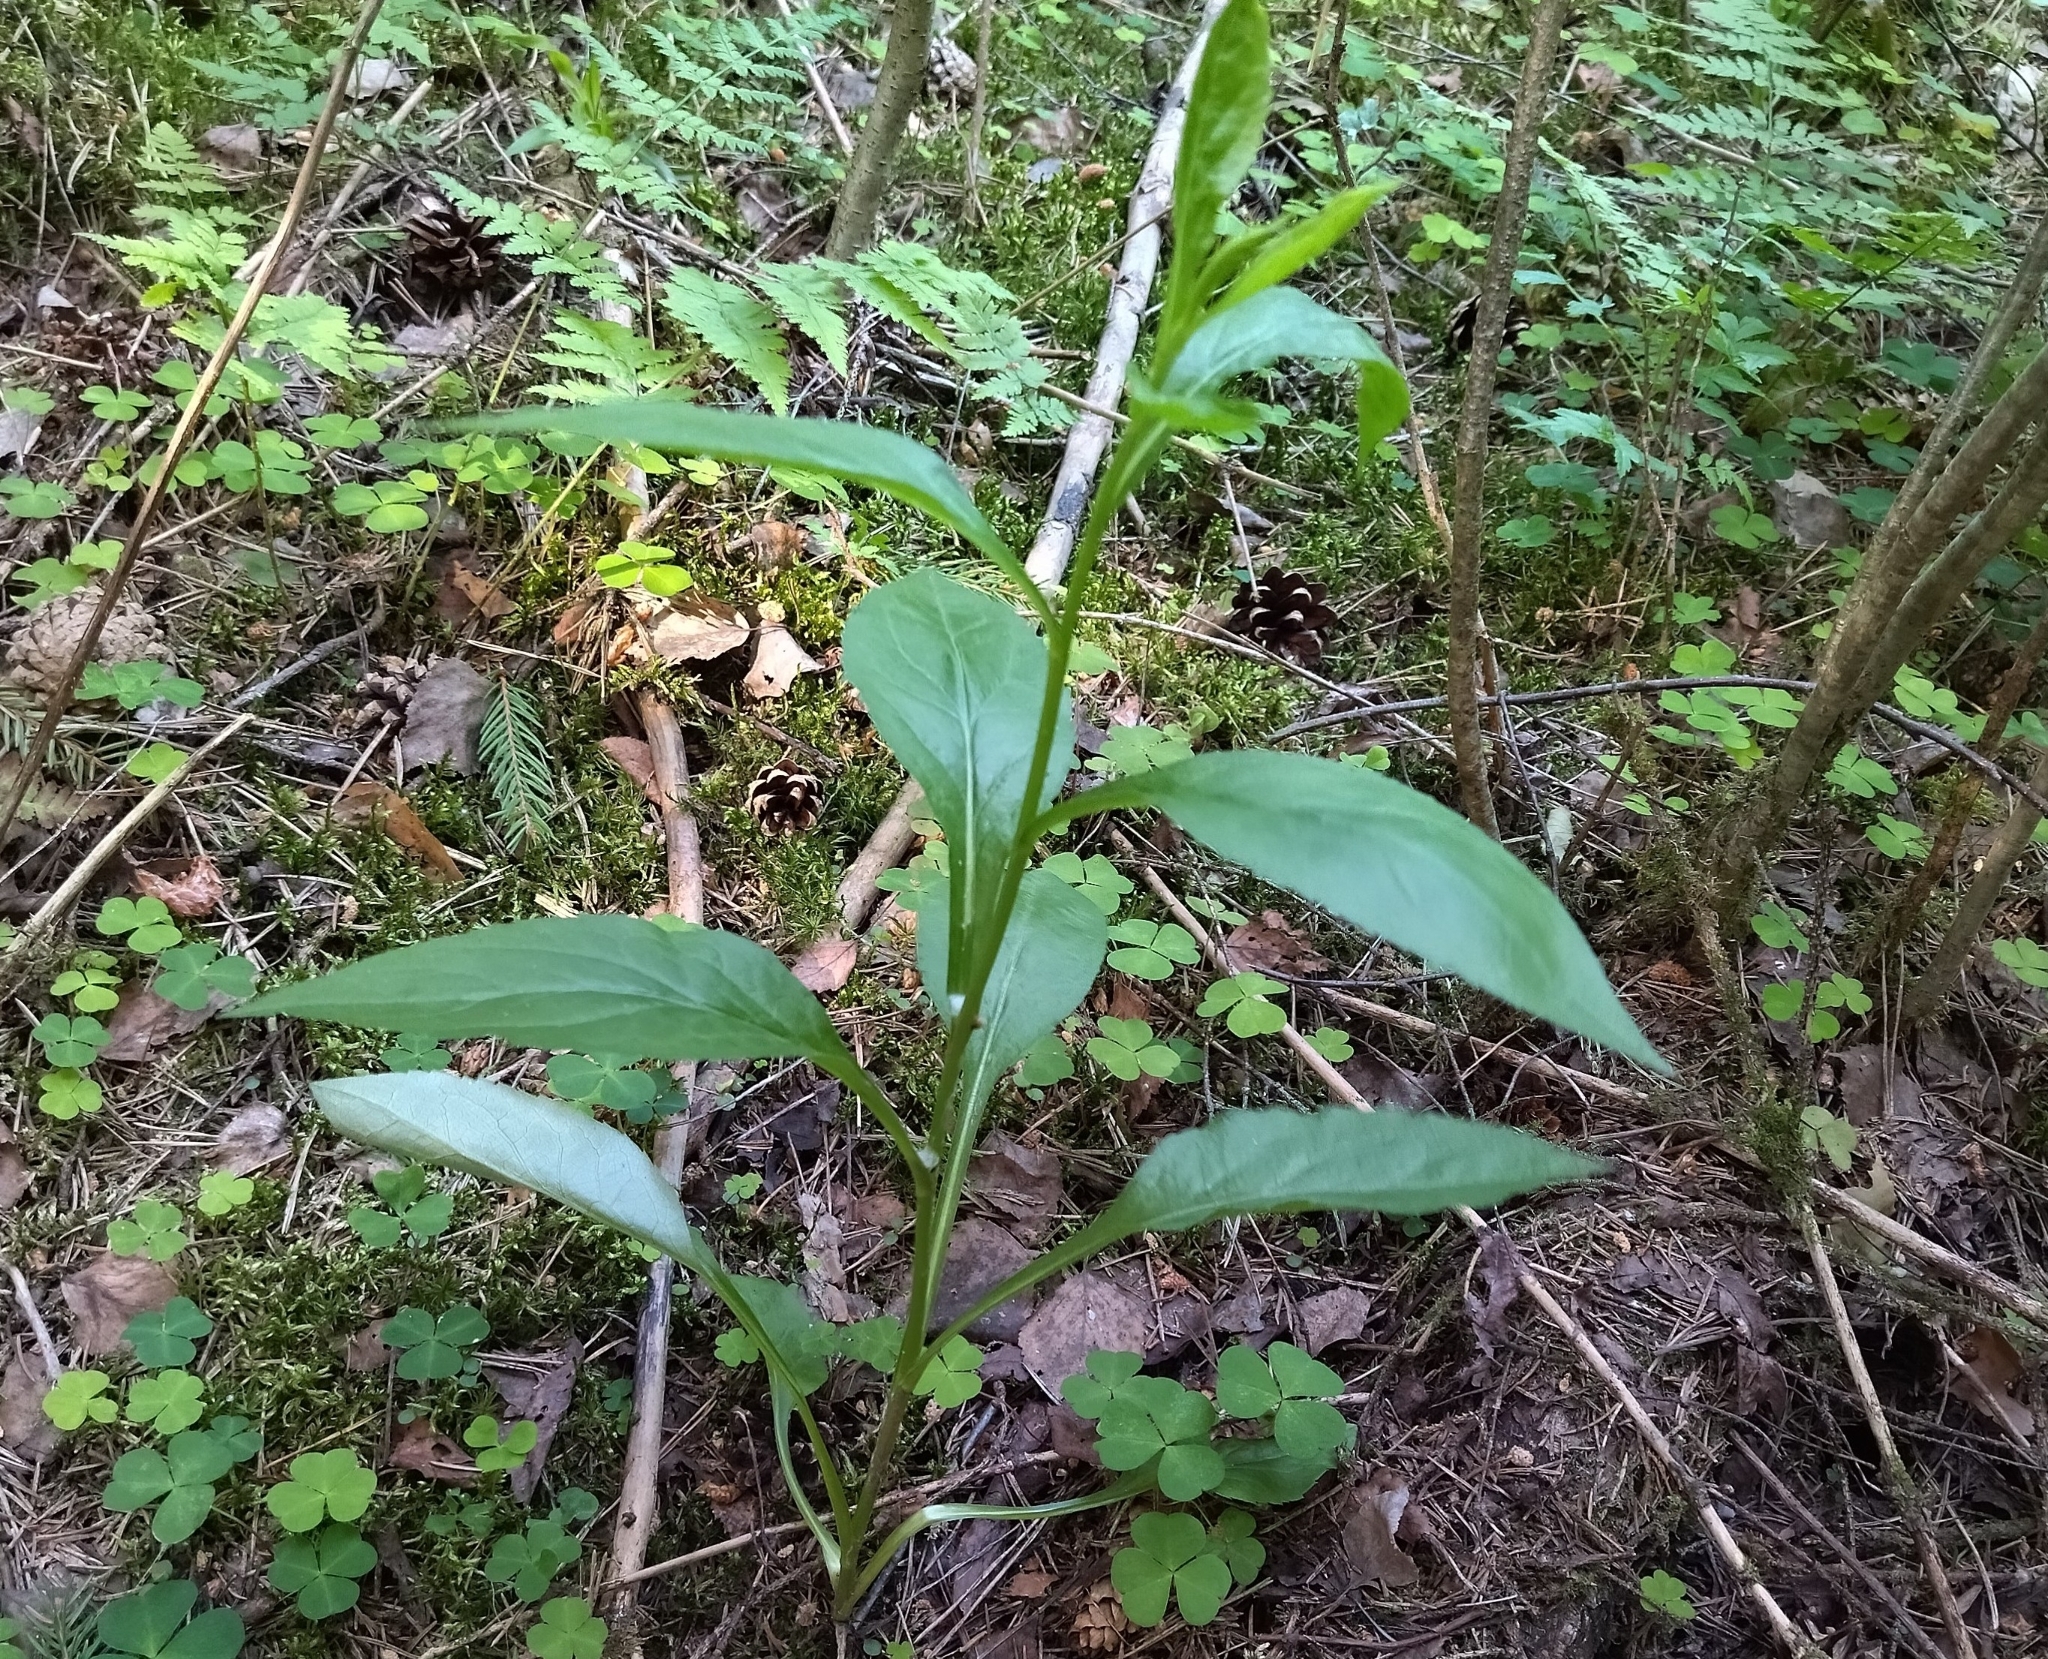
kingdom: Plantae
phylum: Tracheophyta
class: Magnoliopsida
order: Asterales
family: Asteraceae
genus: Solidago
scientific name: Solidago virgaurea
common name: Goldenrod
